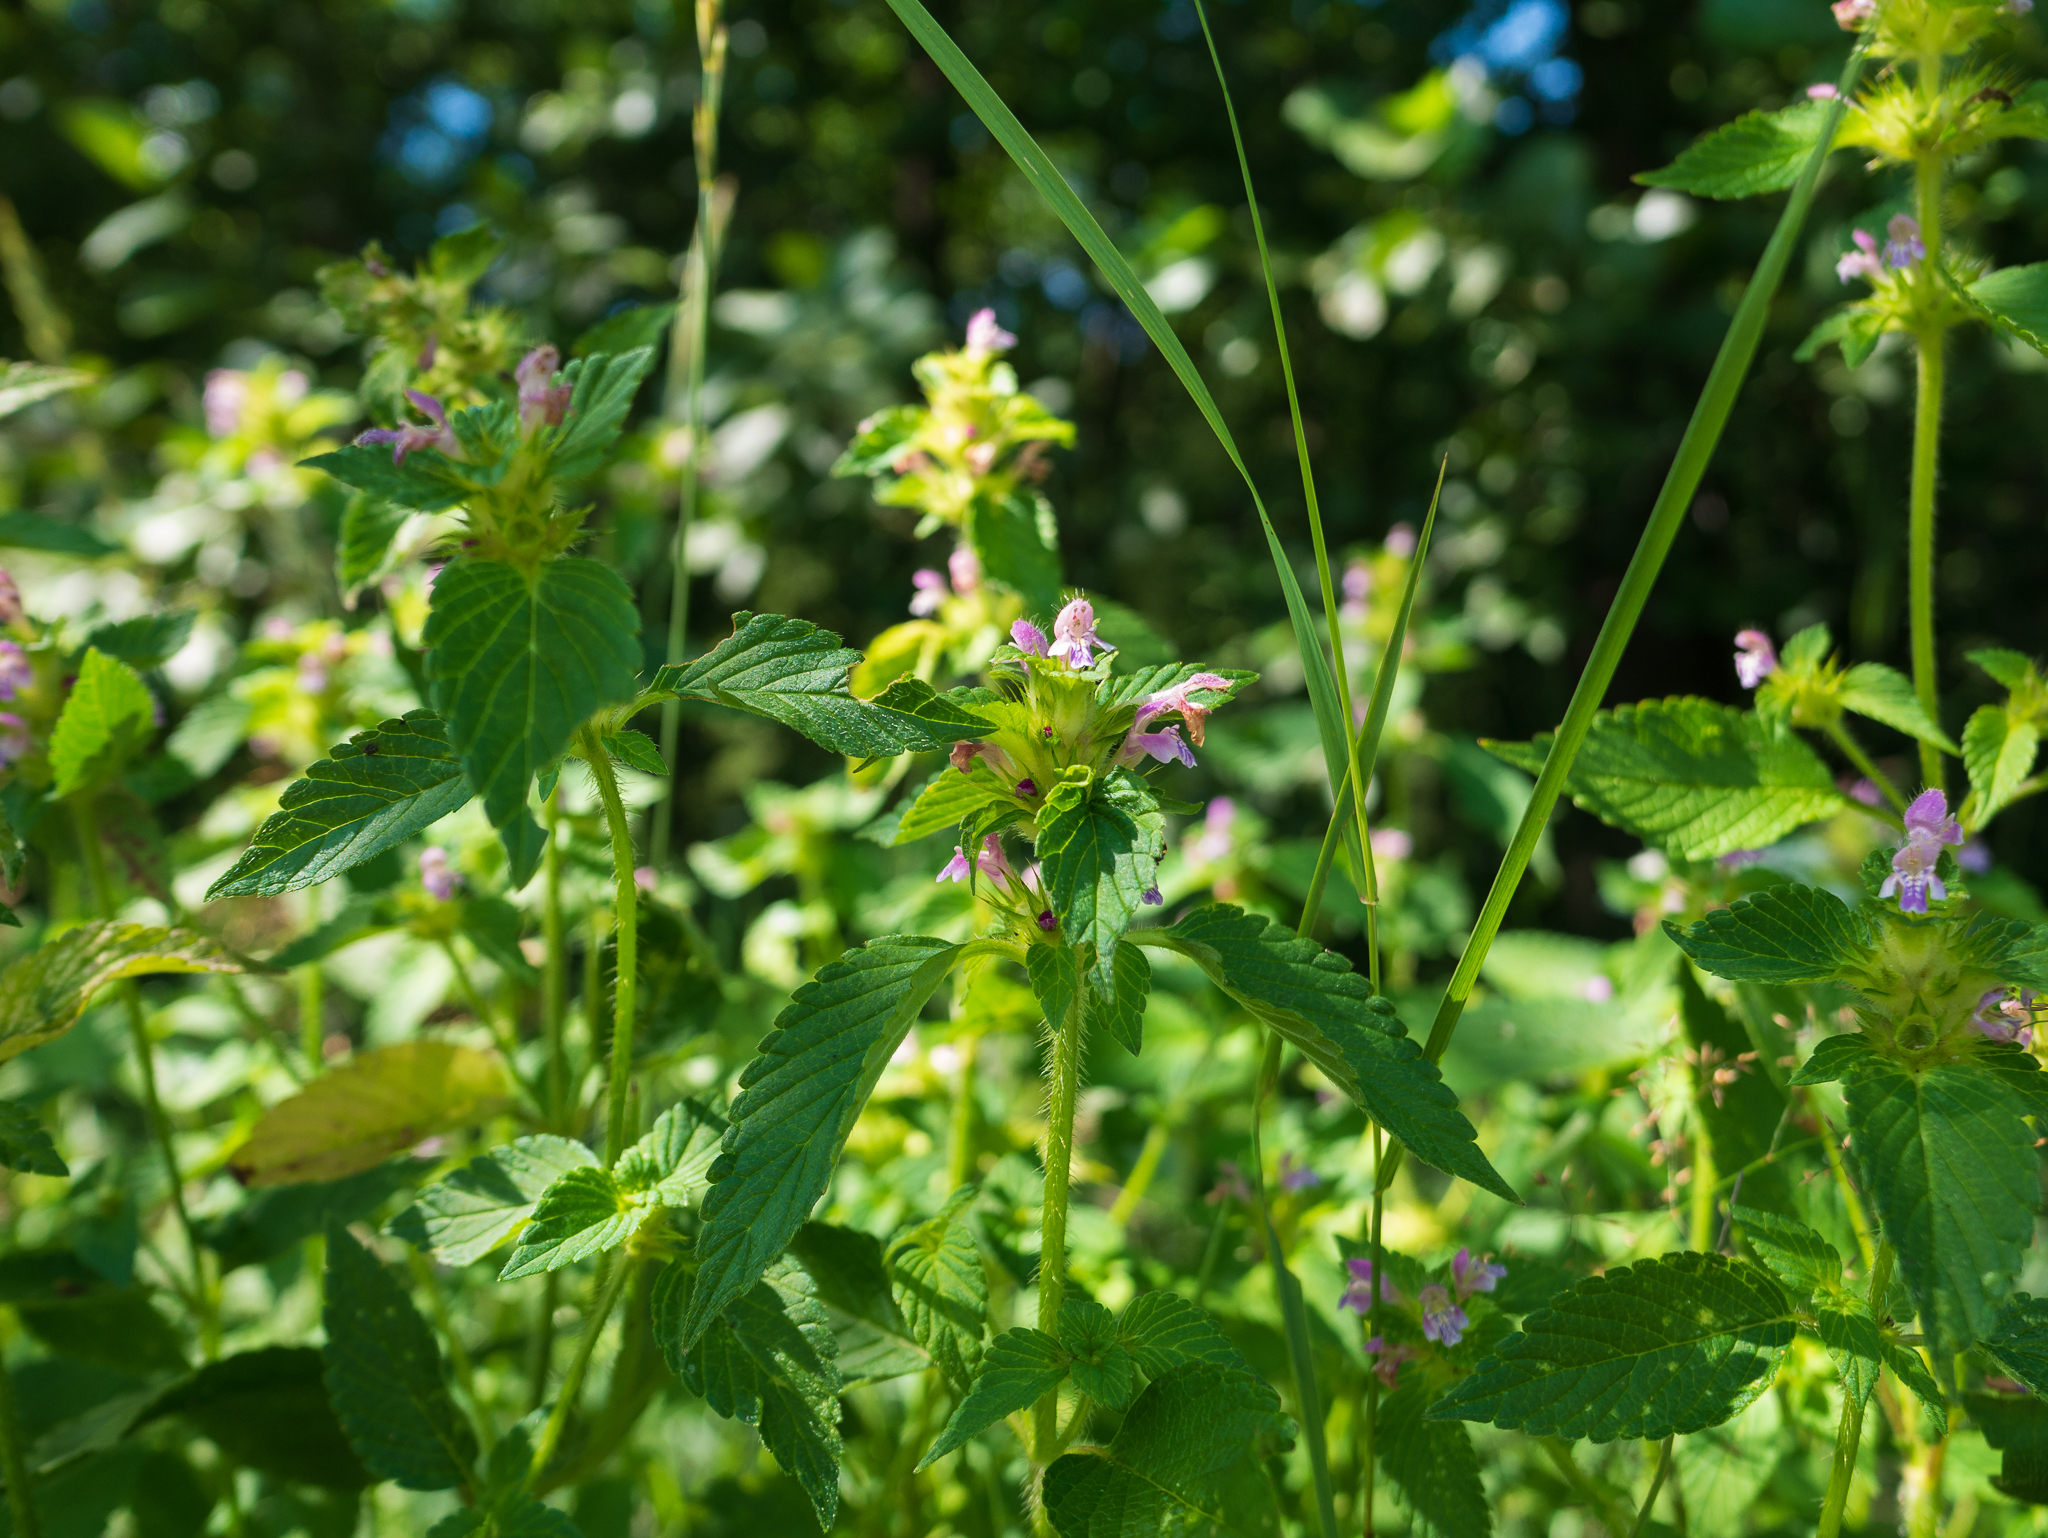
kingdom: Plantae
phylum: Tracheophyta
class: Magnoliopsida
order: Lamiales
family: Lamiaceae
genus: Stachys
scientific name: Stachys palustris
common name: Marsh woundwort
